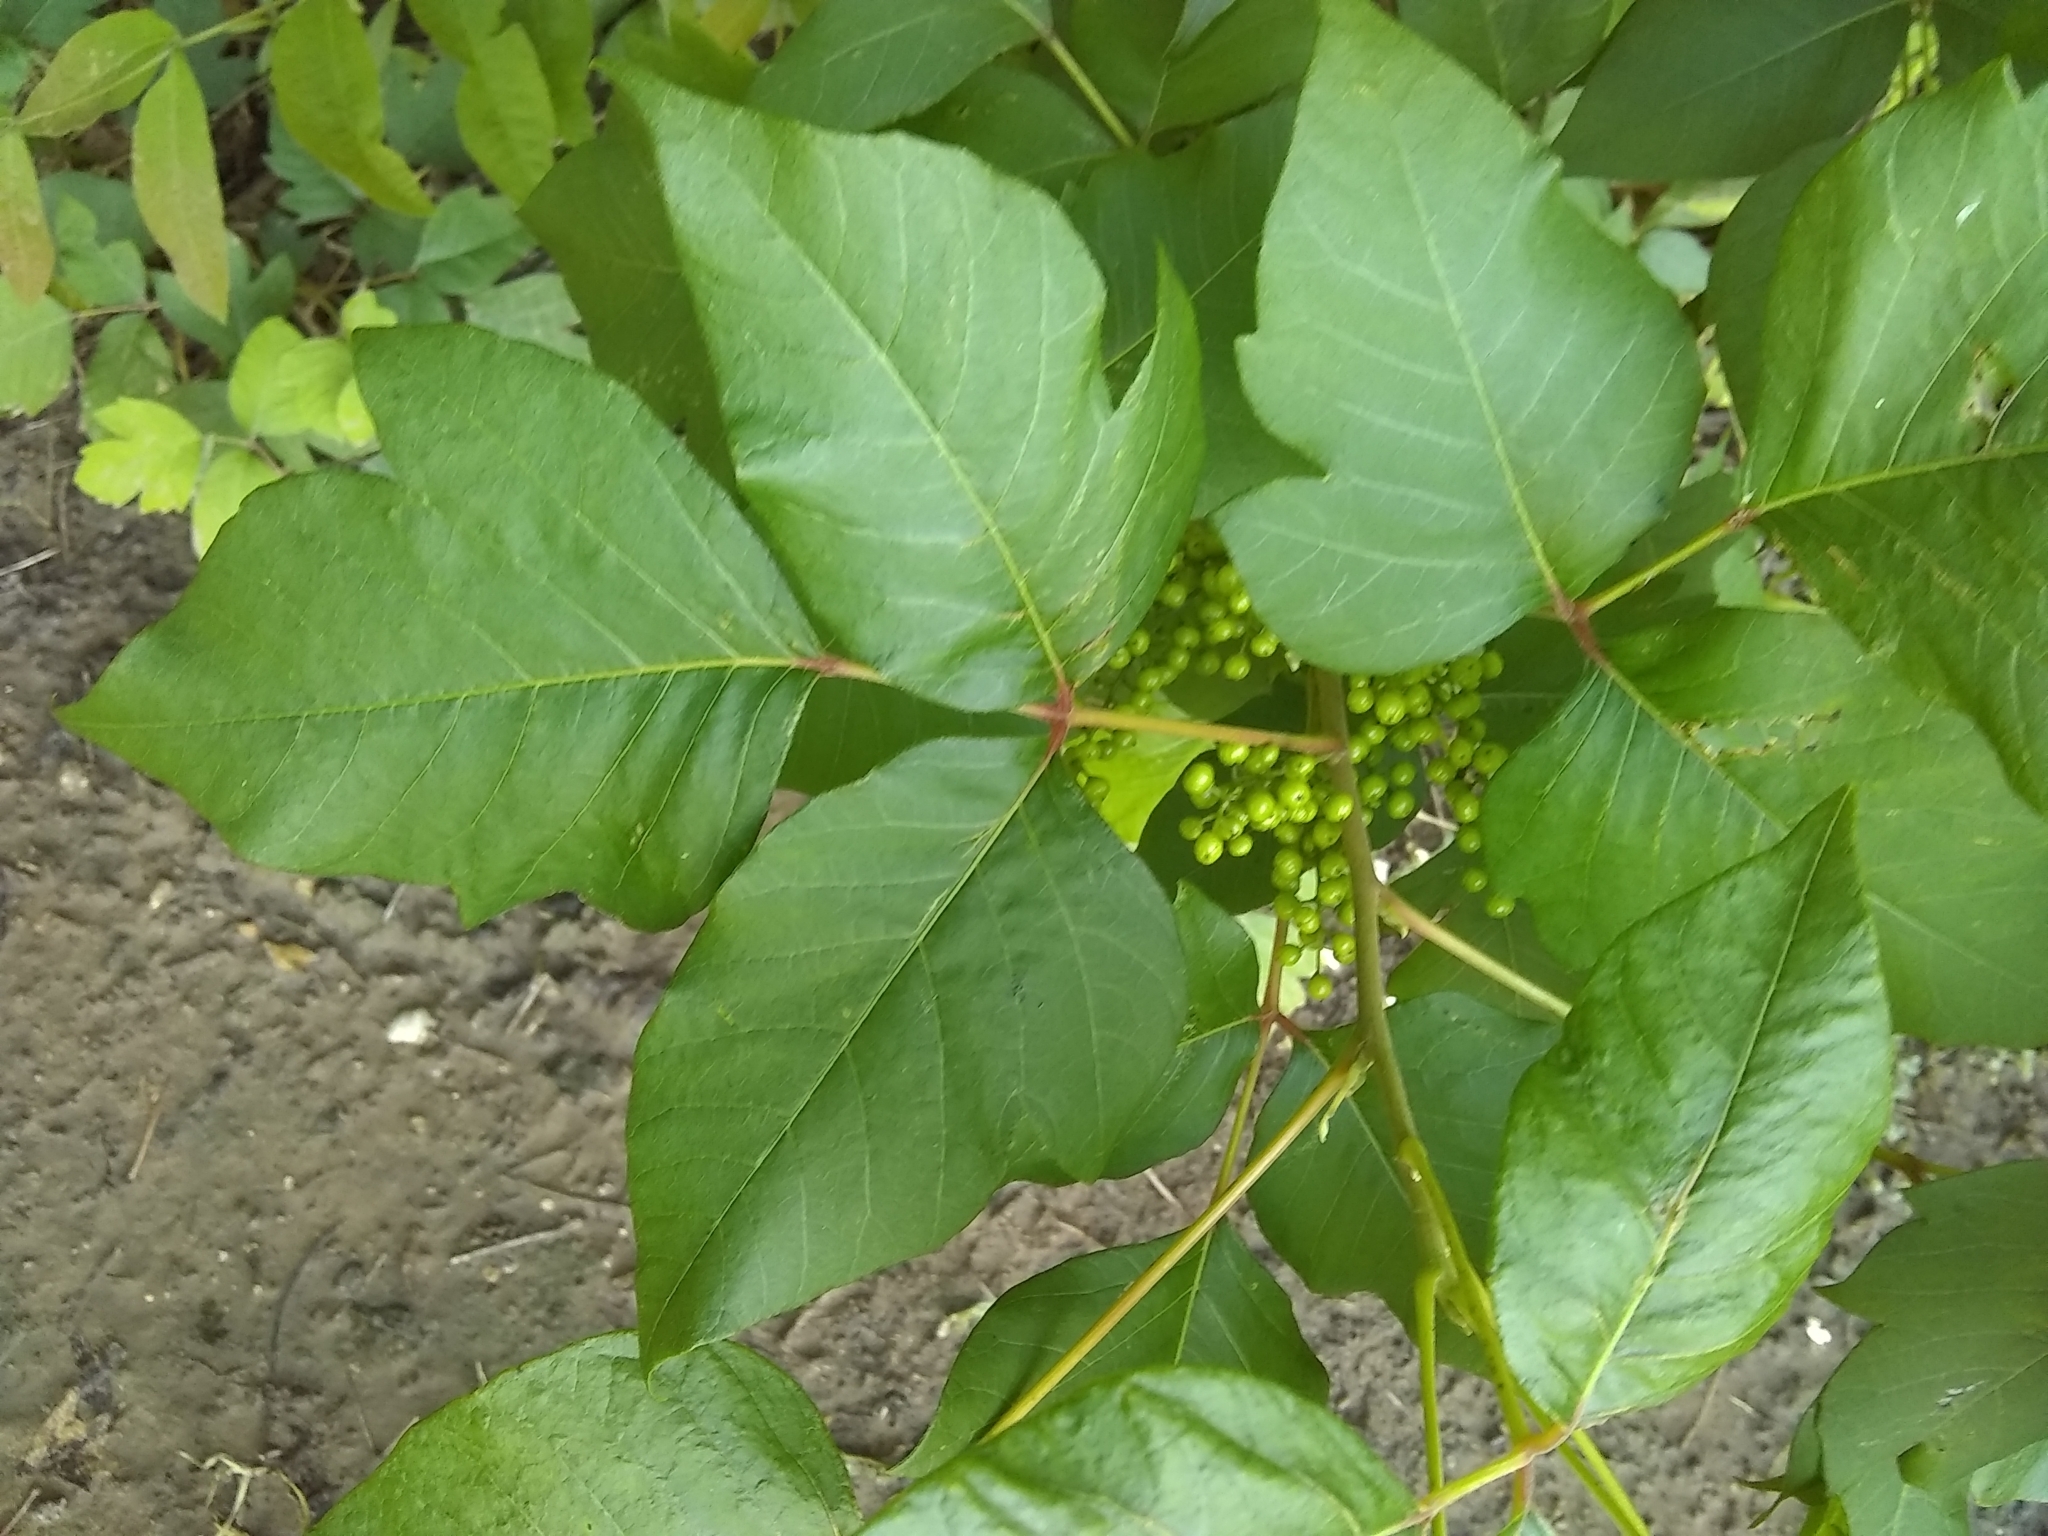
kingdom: Plantae
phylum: Tracheophyta
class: Magnoliopsida
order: Sapindales
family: Anacardiaceae
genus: Toxicodendron
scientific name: Toxicodendron radicans
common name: Poison ivy
